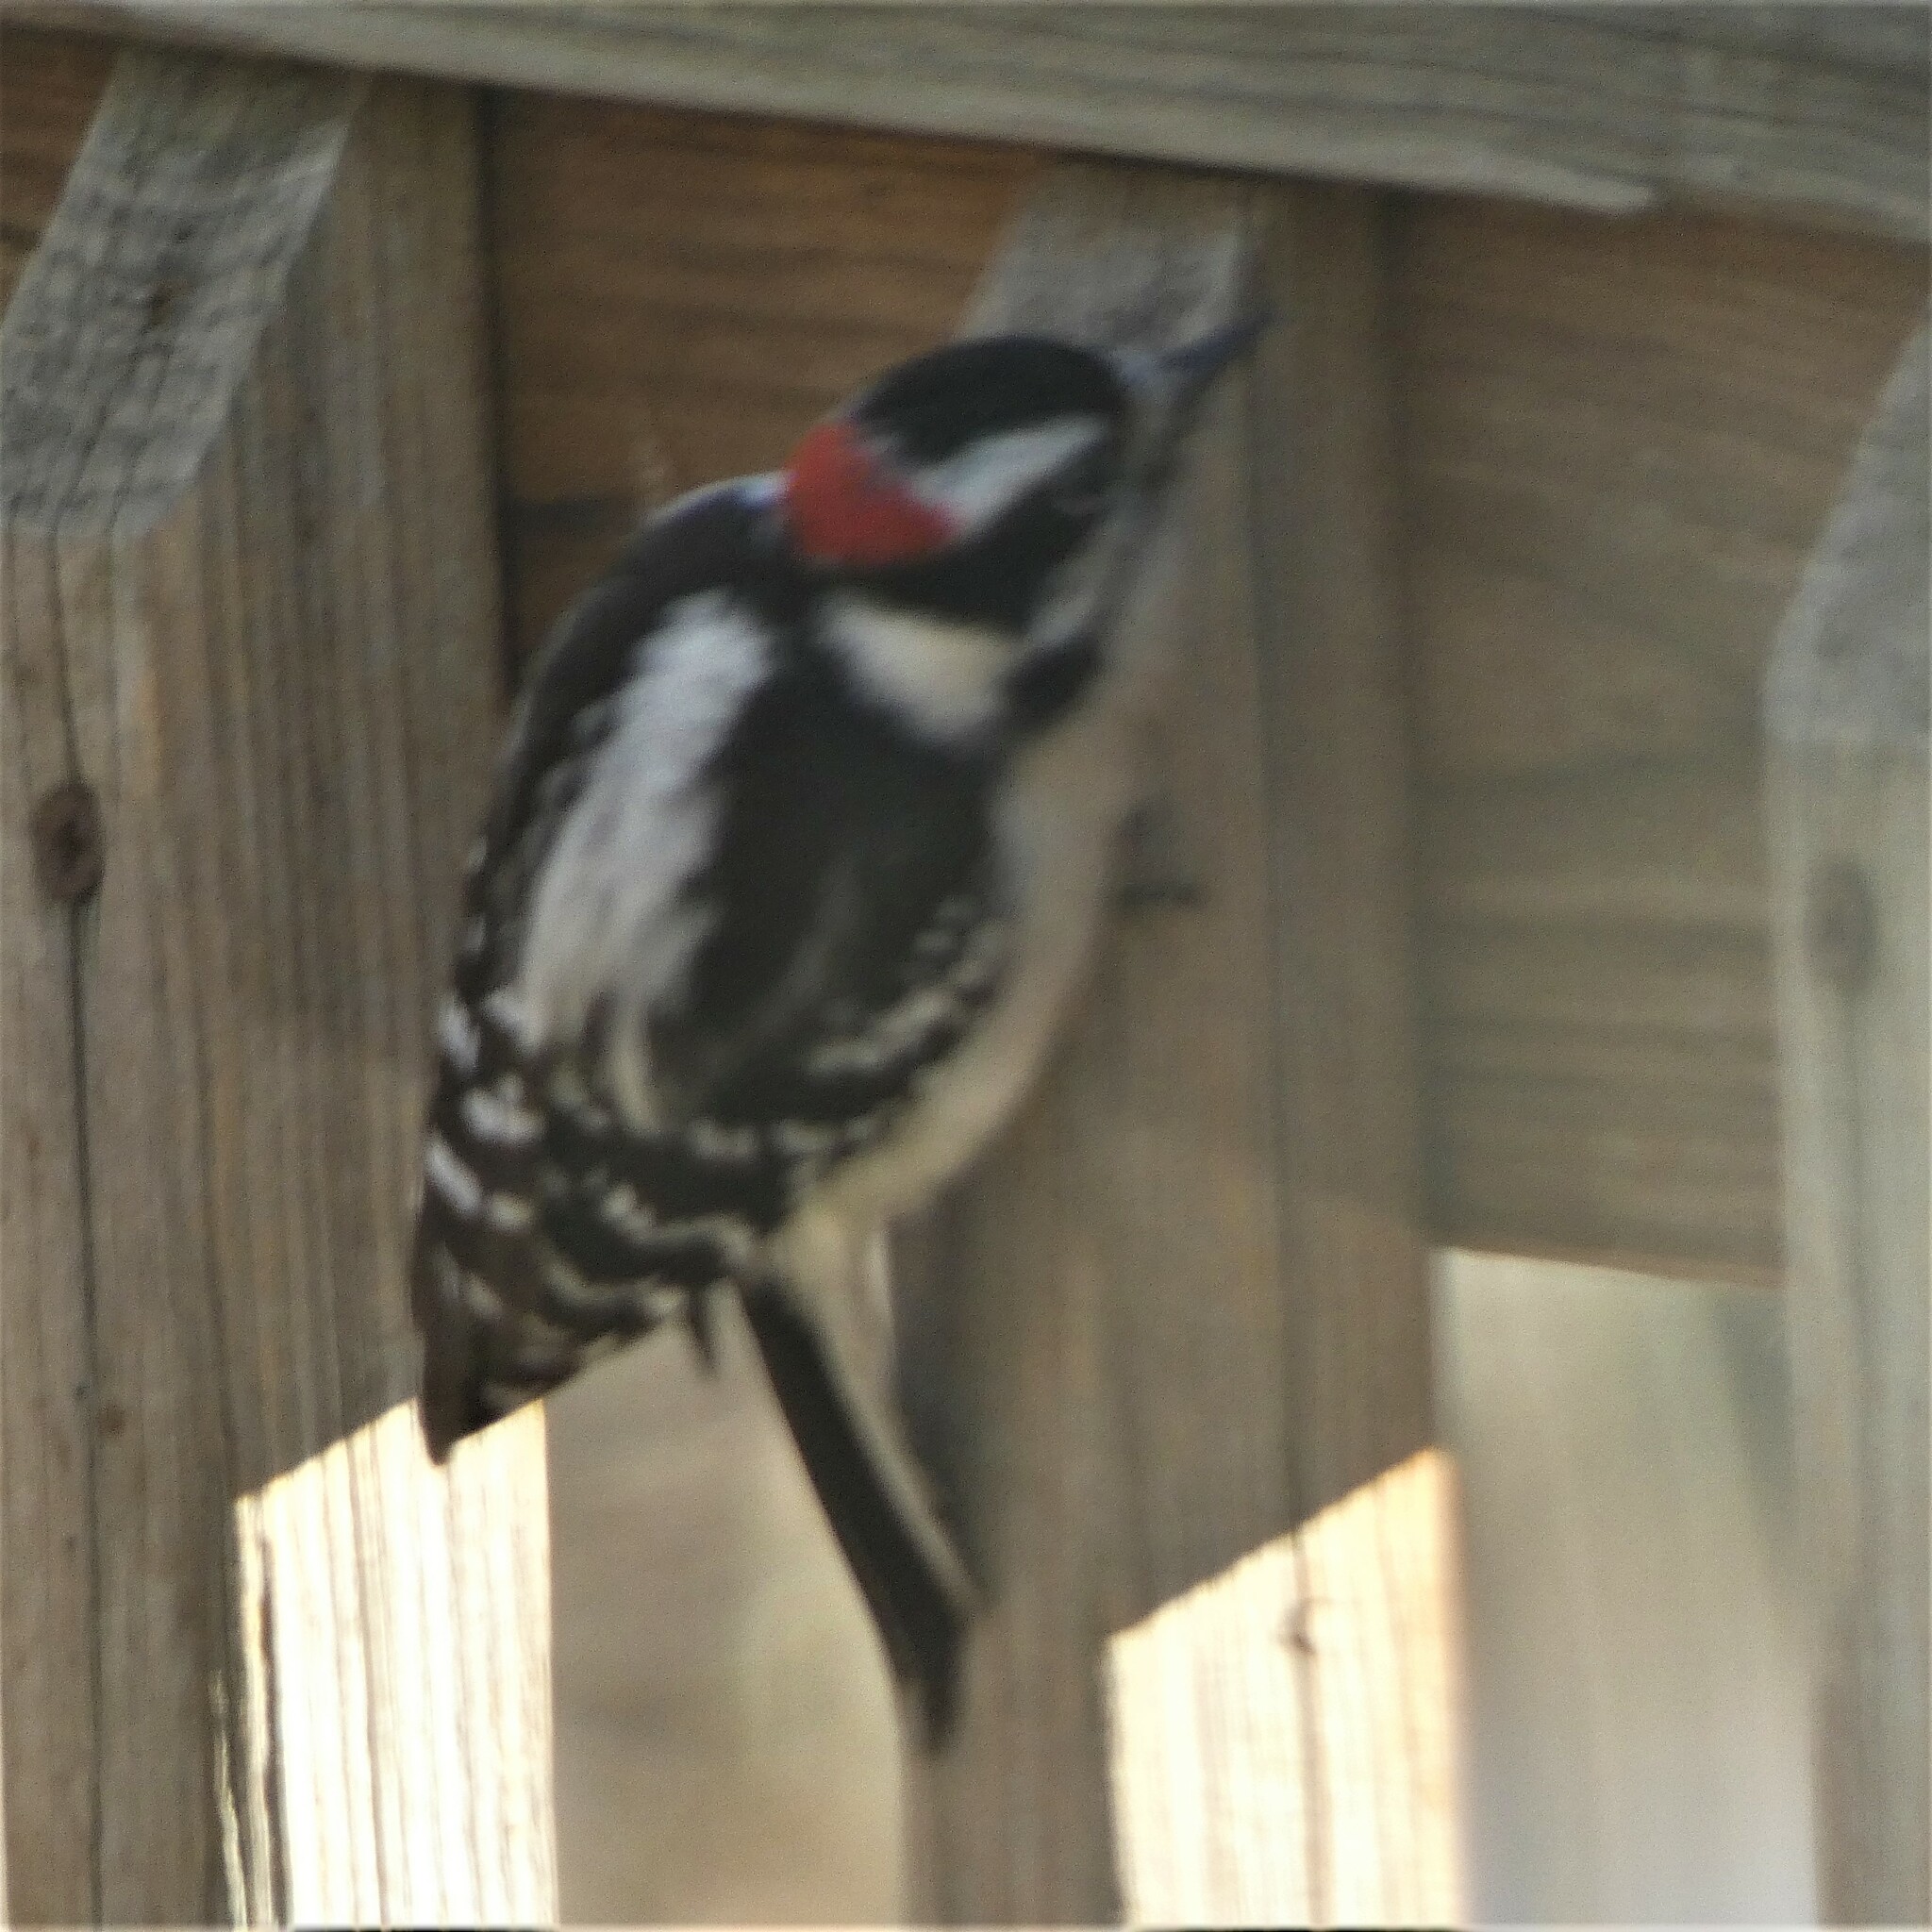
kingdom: Animalia
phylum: Chordata
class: Aves
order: Piciformes
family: Picidae
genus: Dryobates
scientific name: Dryobates pubescens
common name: Downy woodpecker
